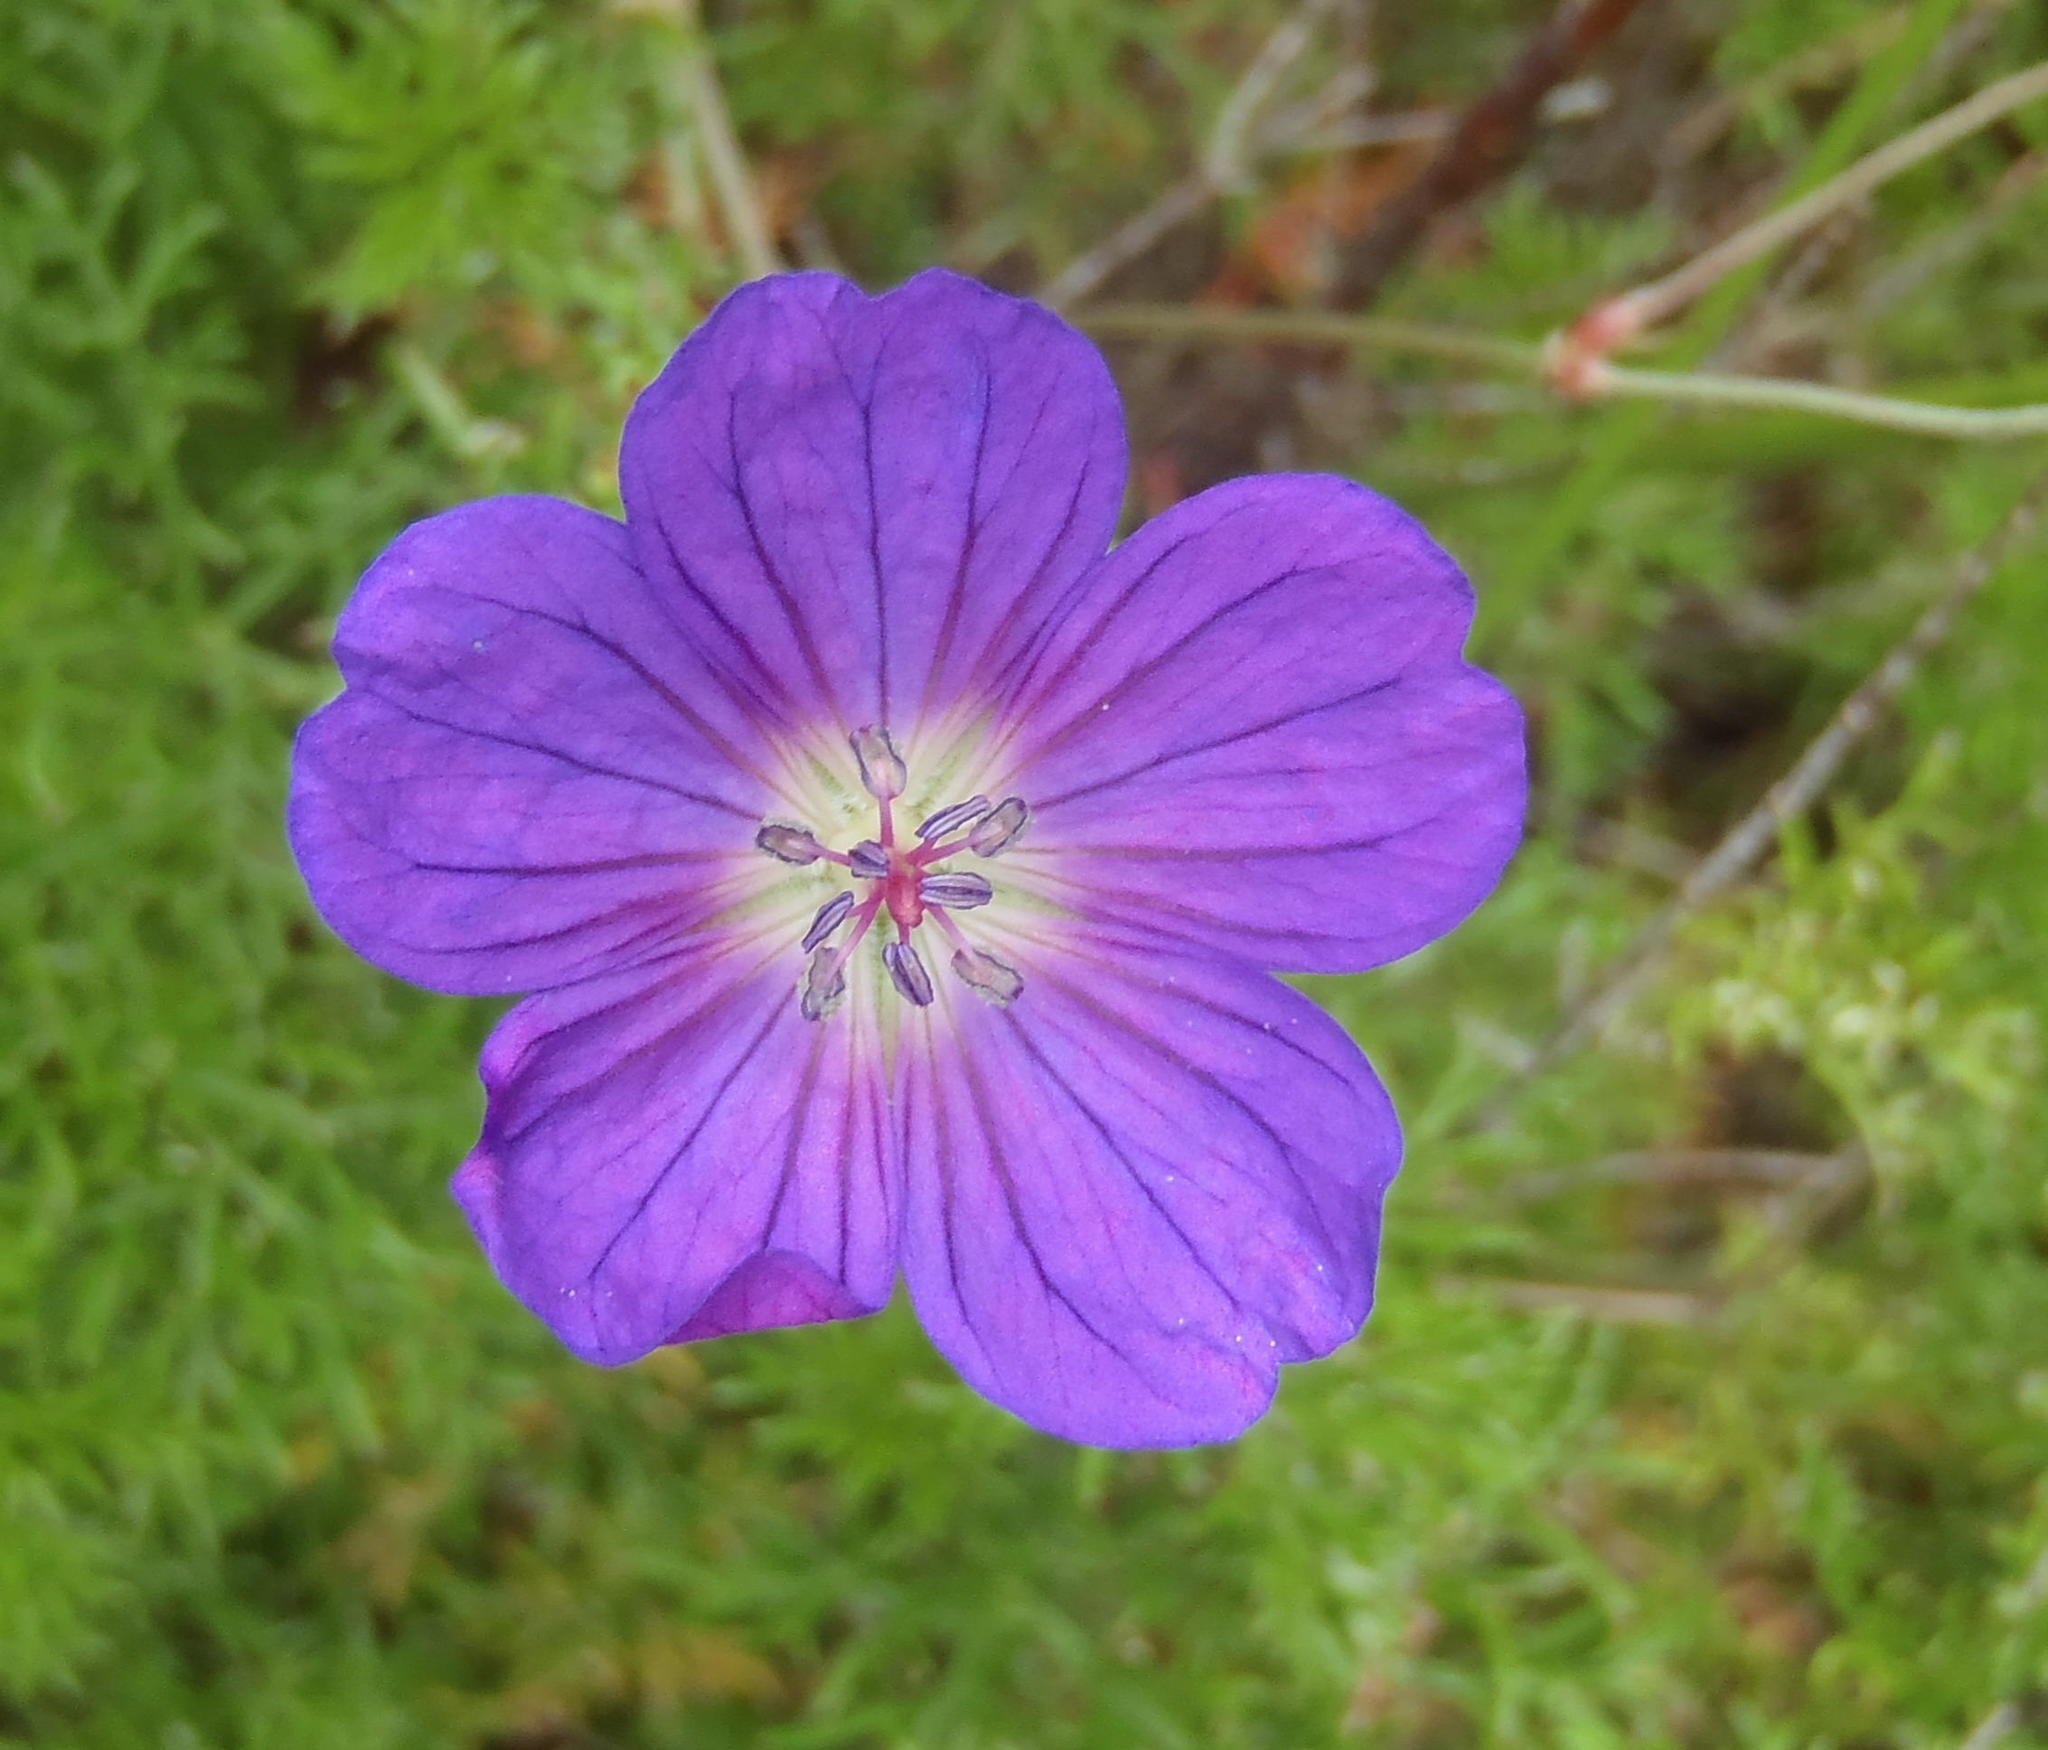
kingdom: Plantae
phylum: Tracheophyta
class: Magnoliopsida
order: Geraniales
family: Geraniaceae
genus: Geranium
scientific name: Geranium incanum
